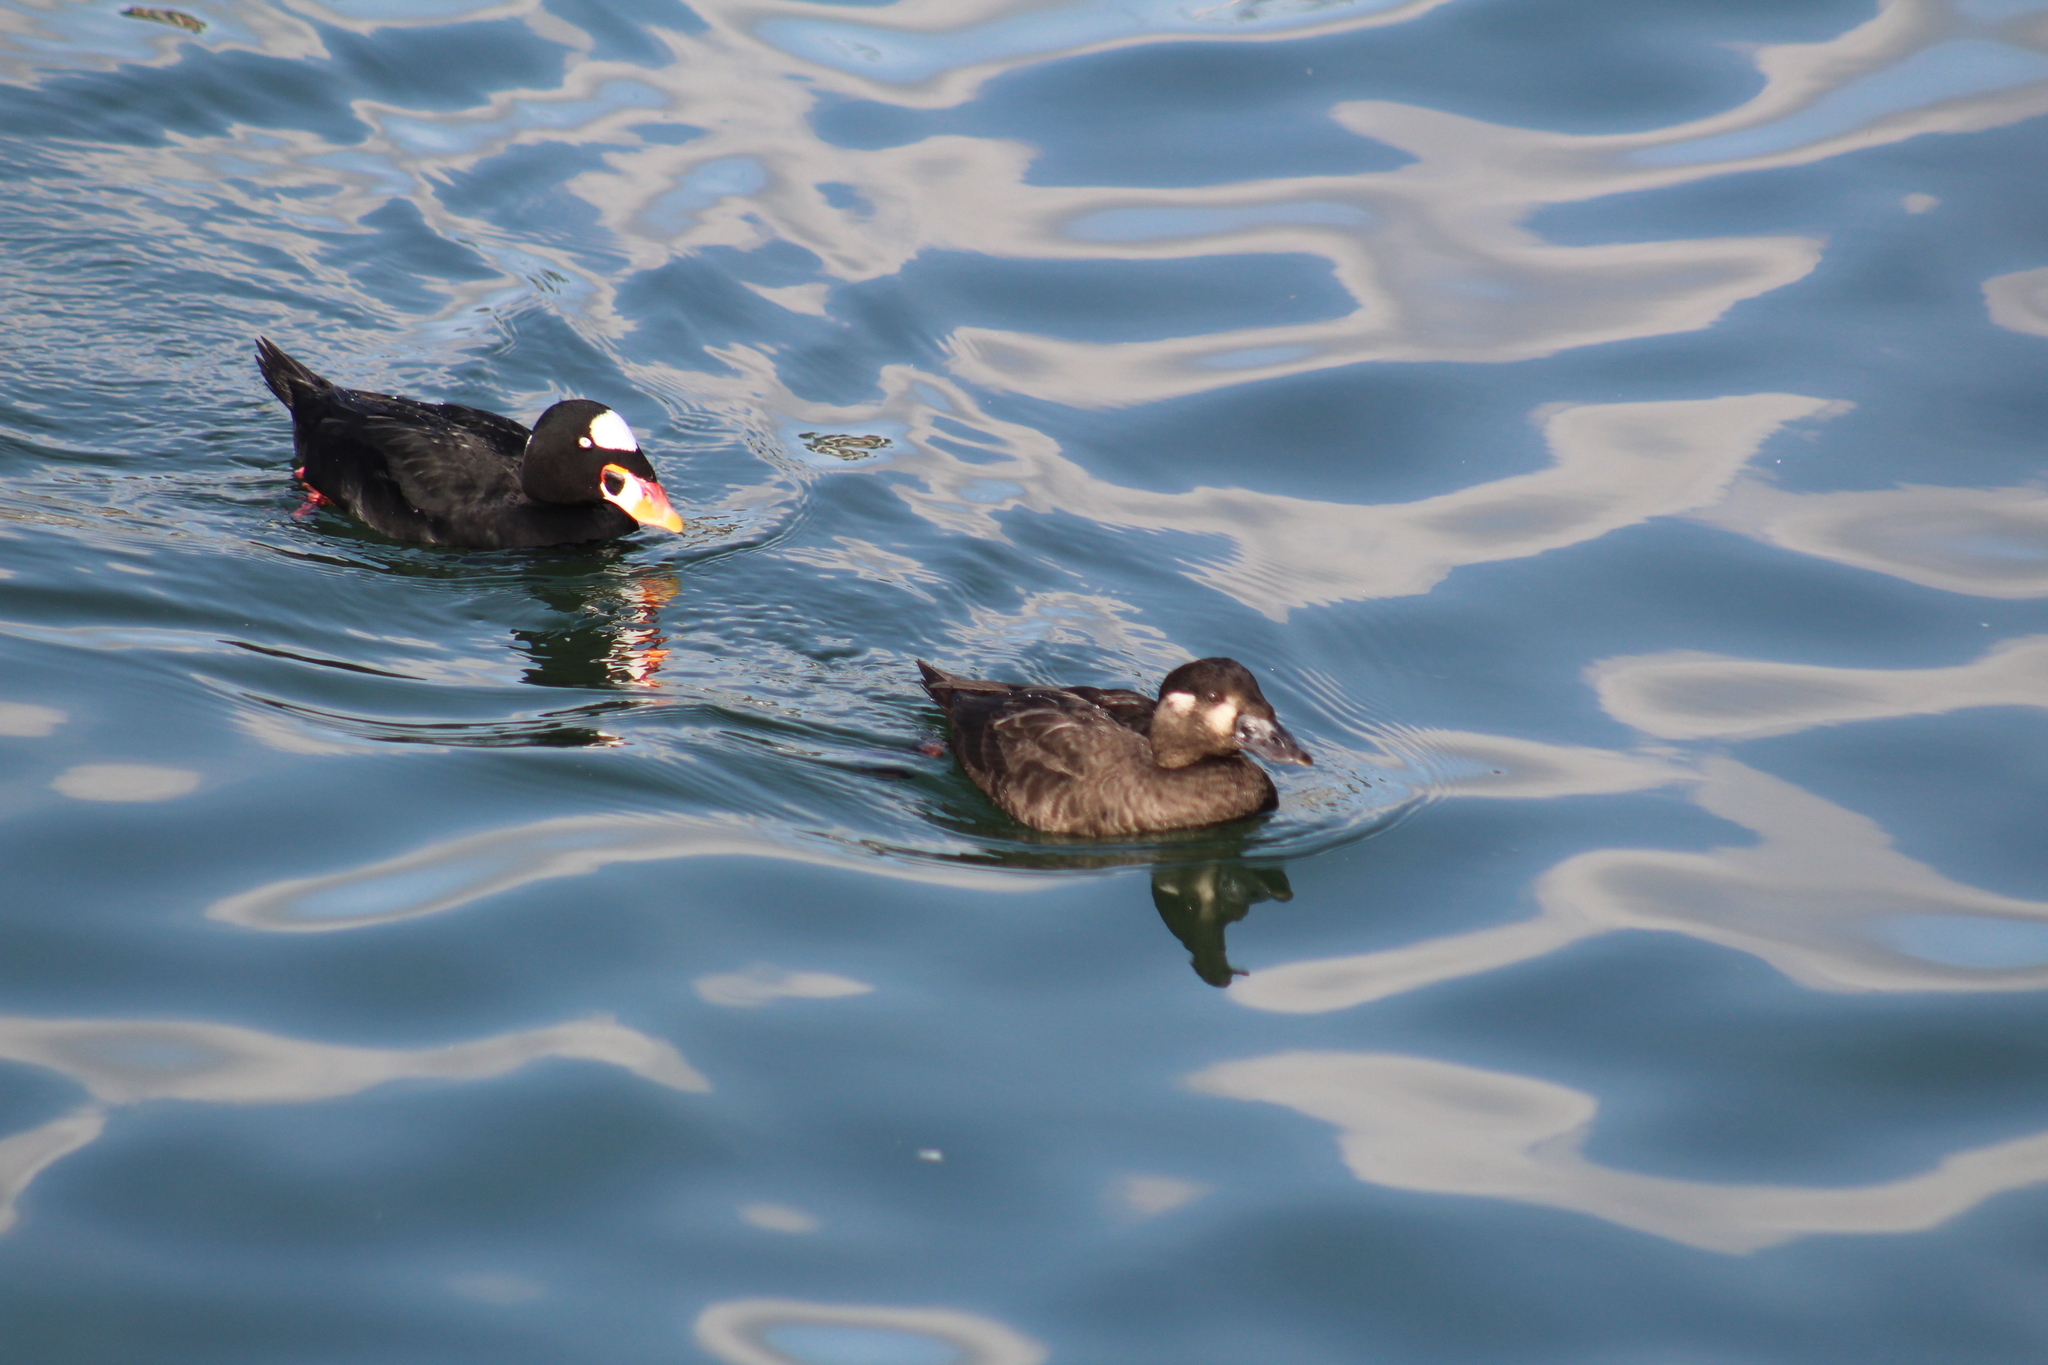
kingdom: Animalia
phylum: Chordata
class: Aves
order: Anseriformes
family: Anatidae
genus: Melanitta
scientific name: Melanitta perspicillata
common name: Surf scoter
